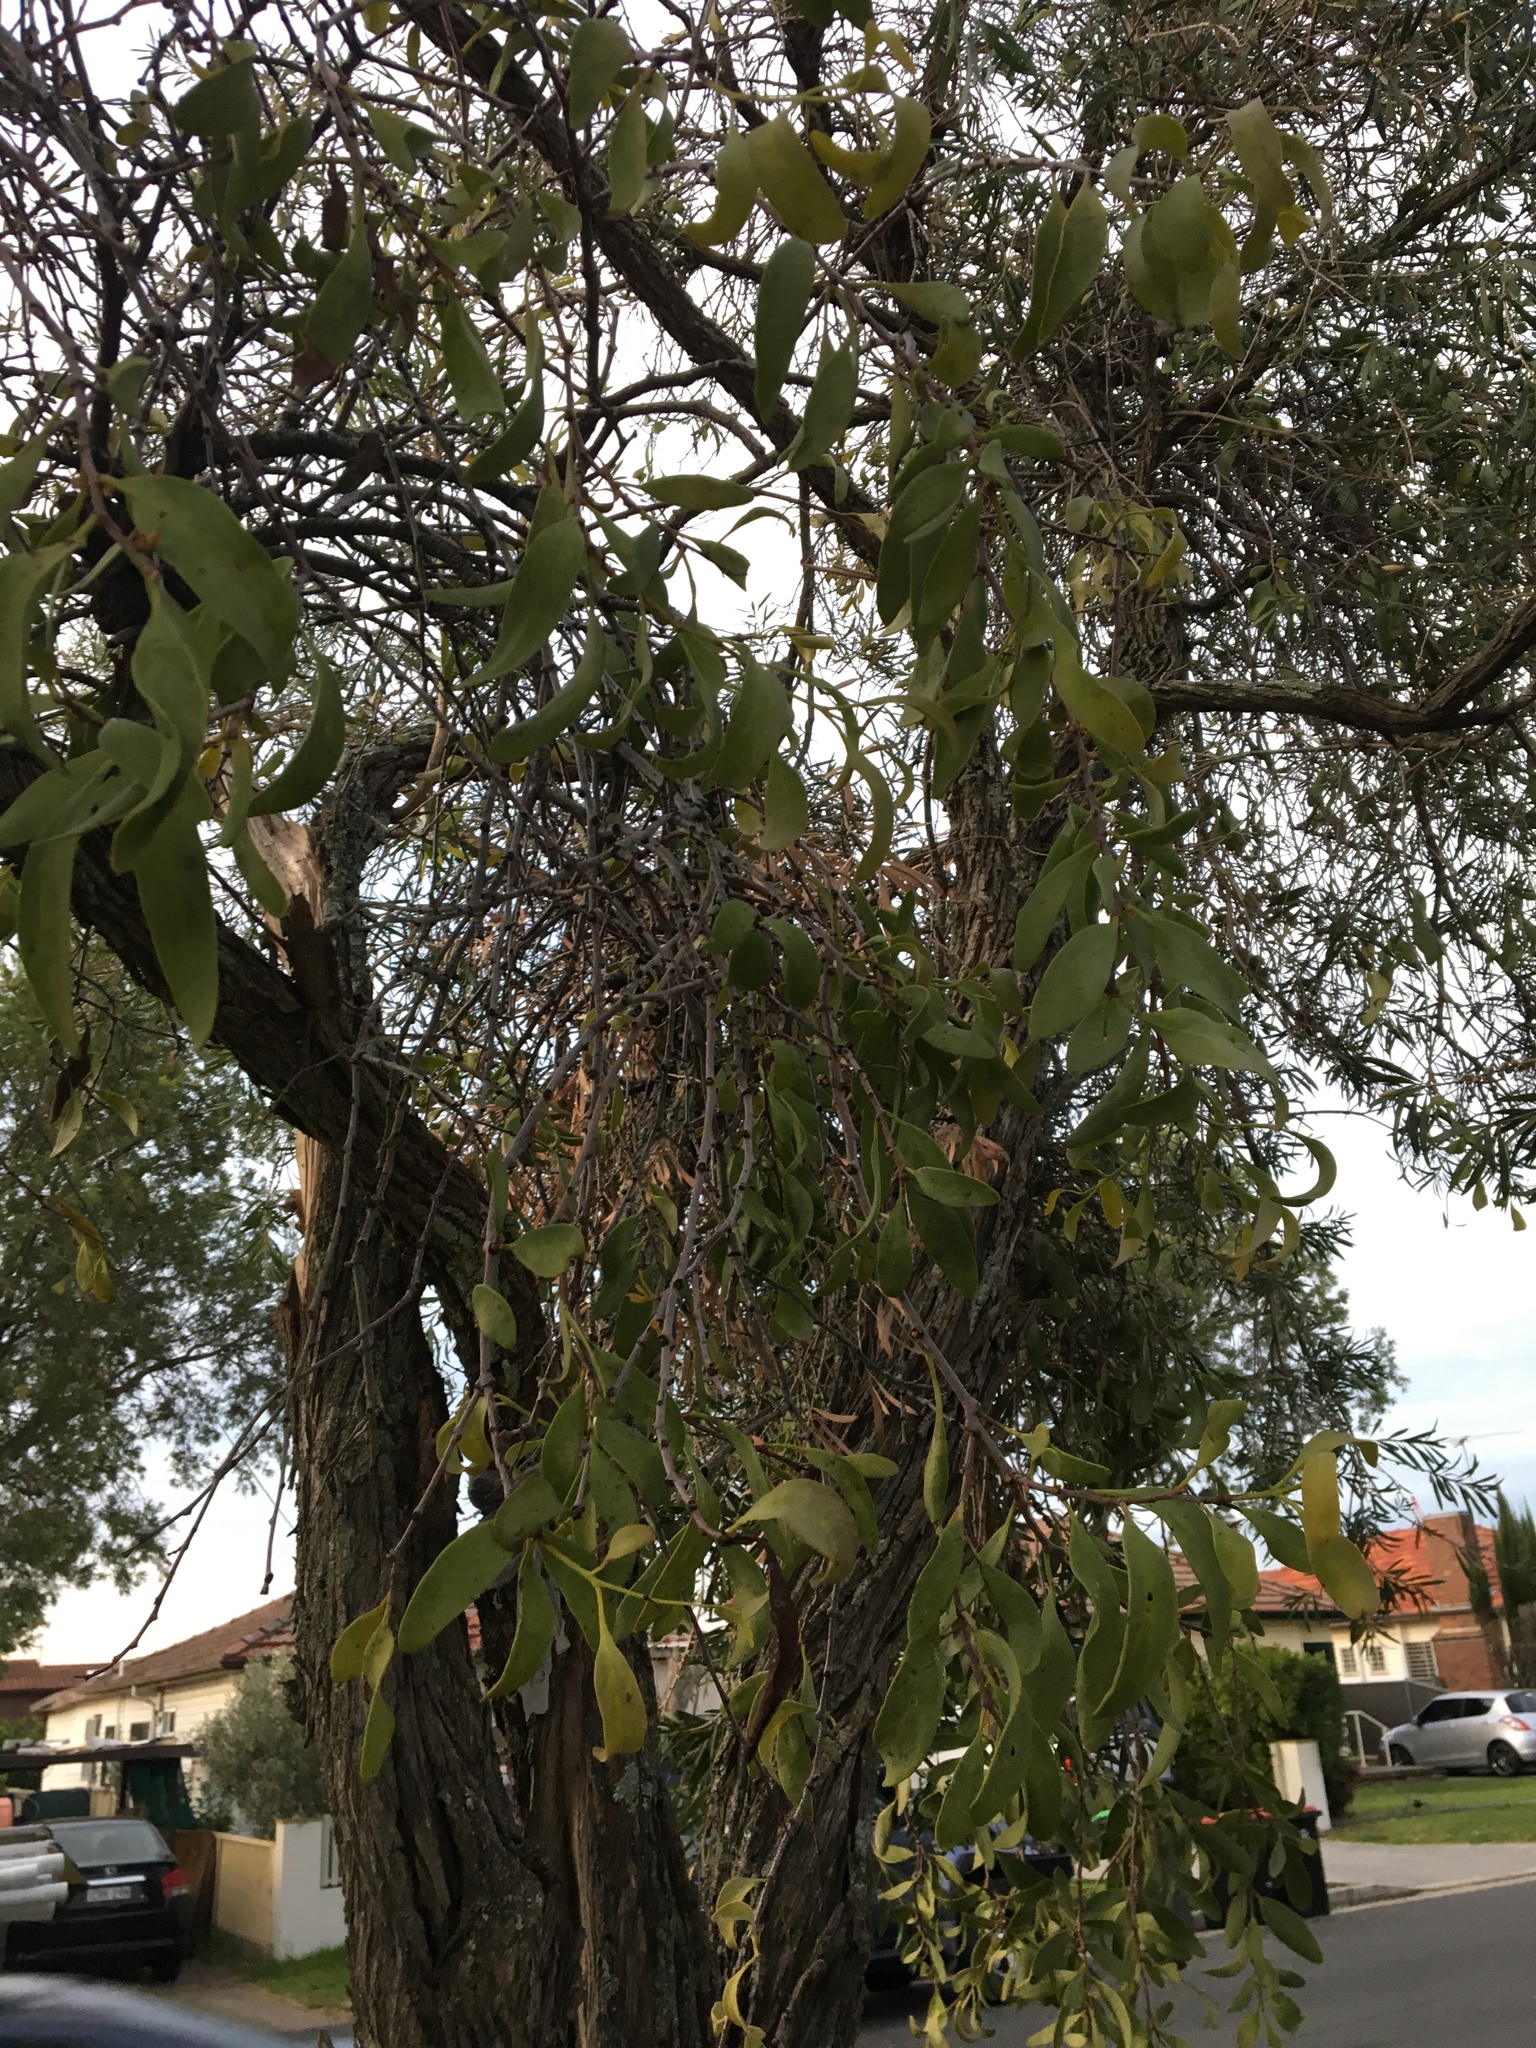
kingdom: Plantae
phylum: Tracheophyta
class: Magnoliopsida
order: Santalales
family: Loranthaceae
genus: Dendrophthoe
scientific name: Dendrophthoe vitellina
